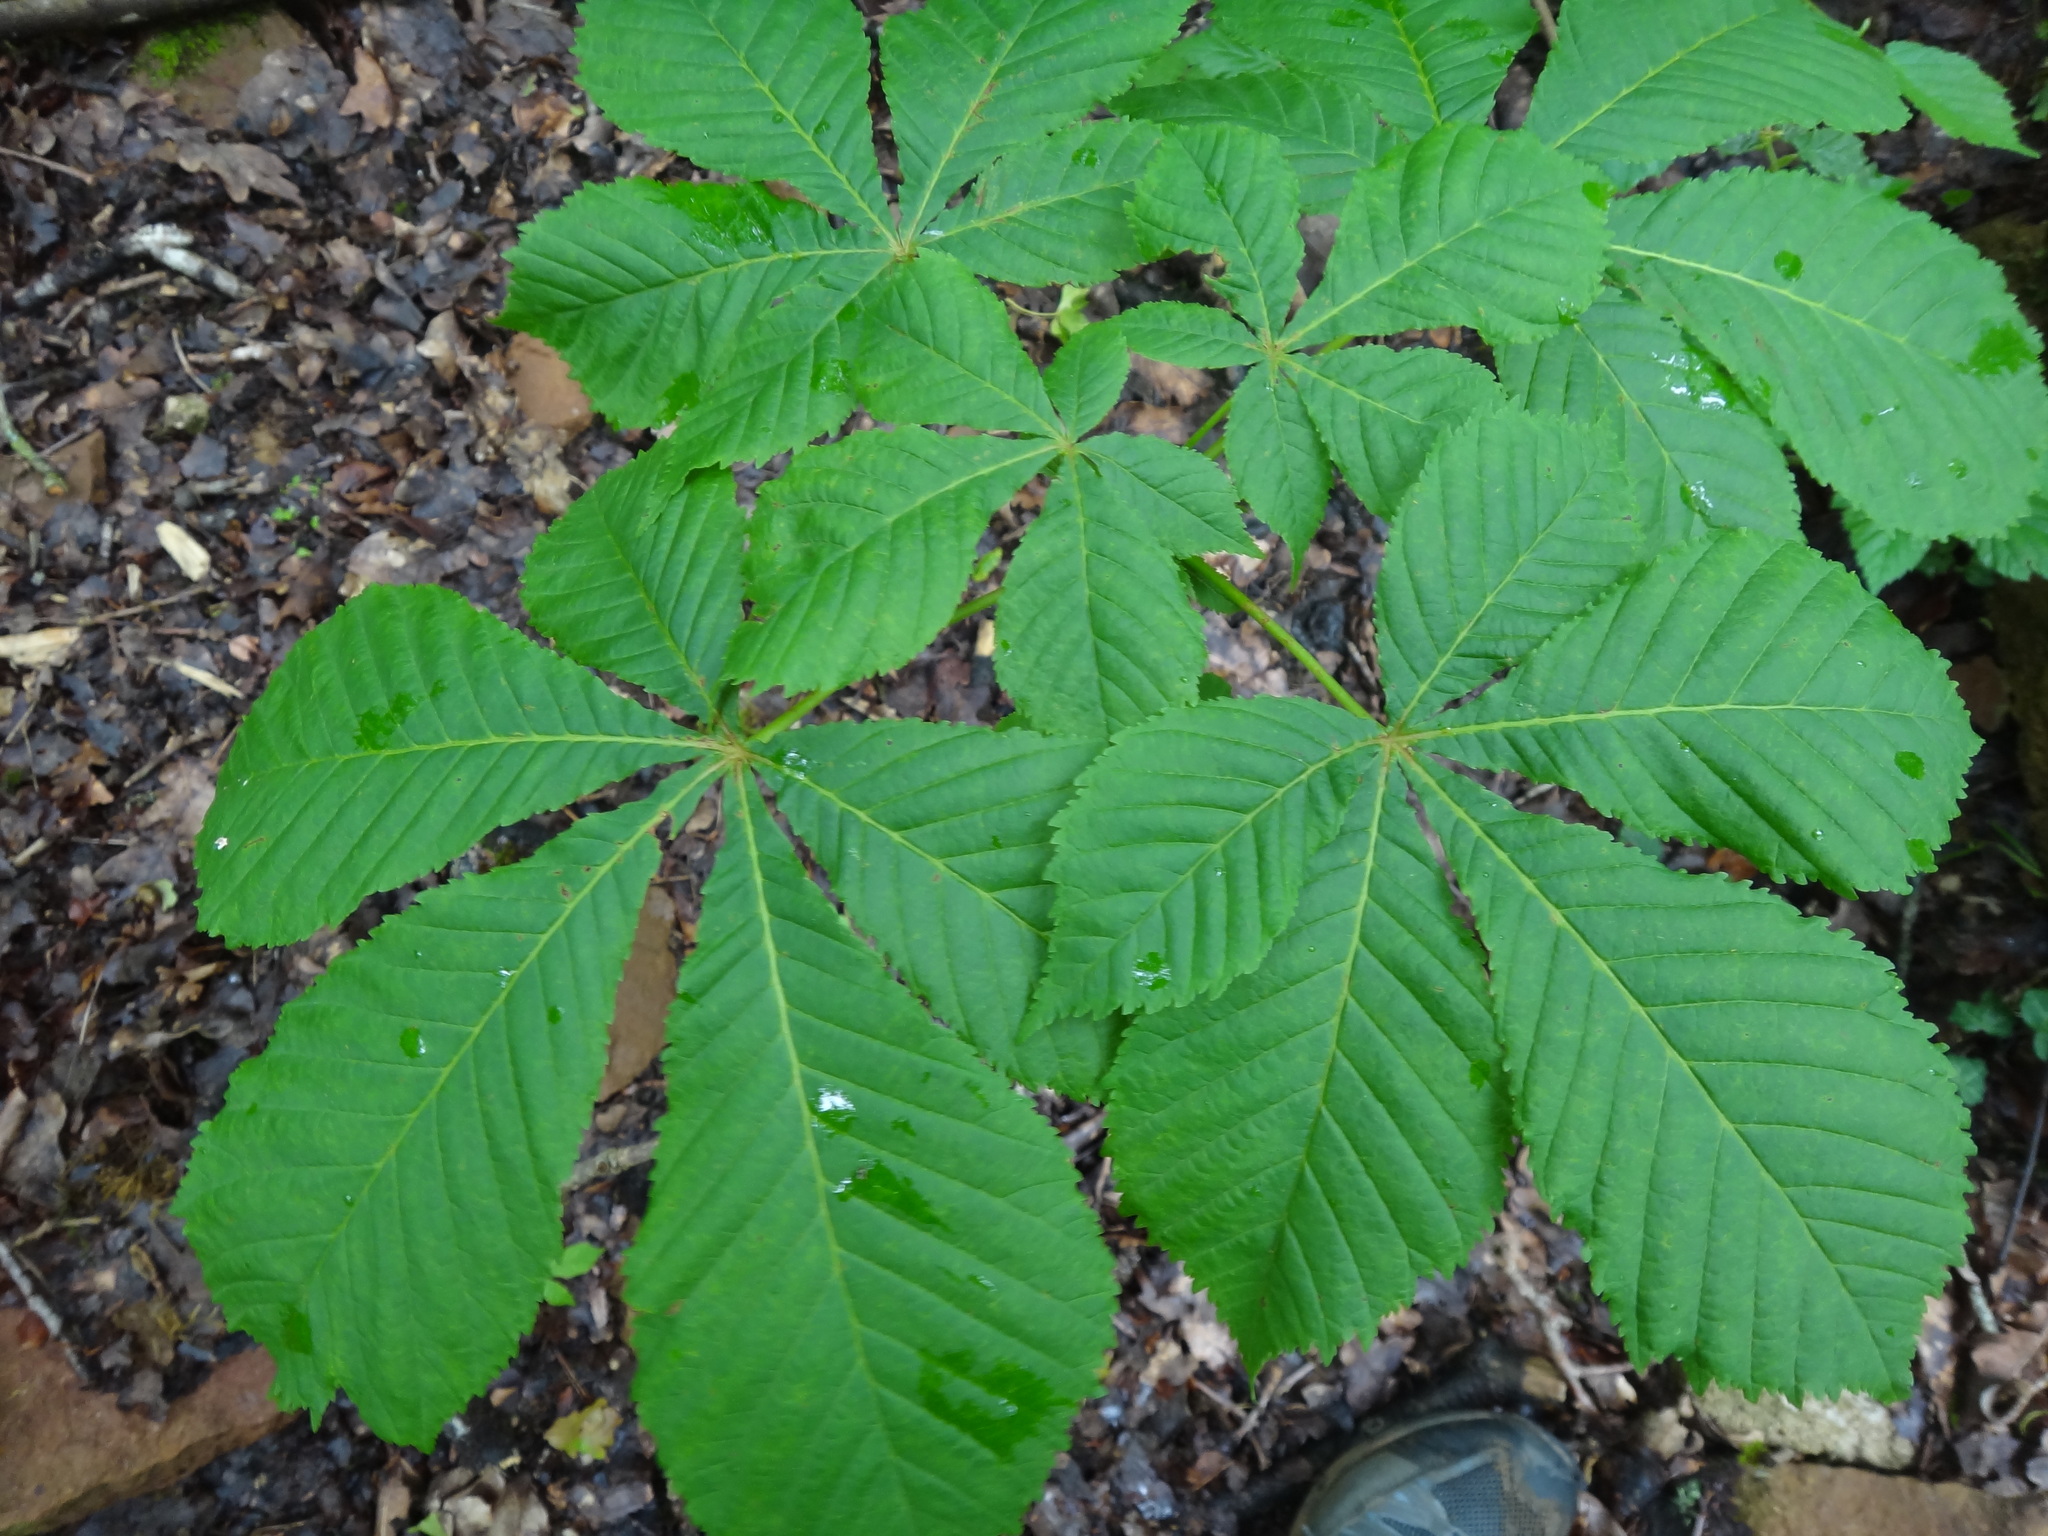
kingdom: Plantae
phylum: Tracheophyta
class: Magnoliopsida
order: Sapindales
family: Sapindaceae
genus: Aesculus
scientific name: Aesculus hippocastanum
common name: Horse-chestnut
